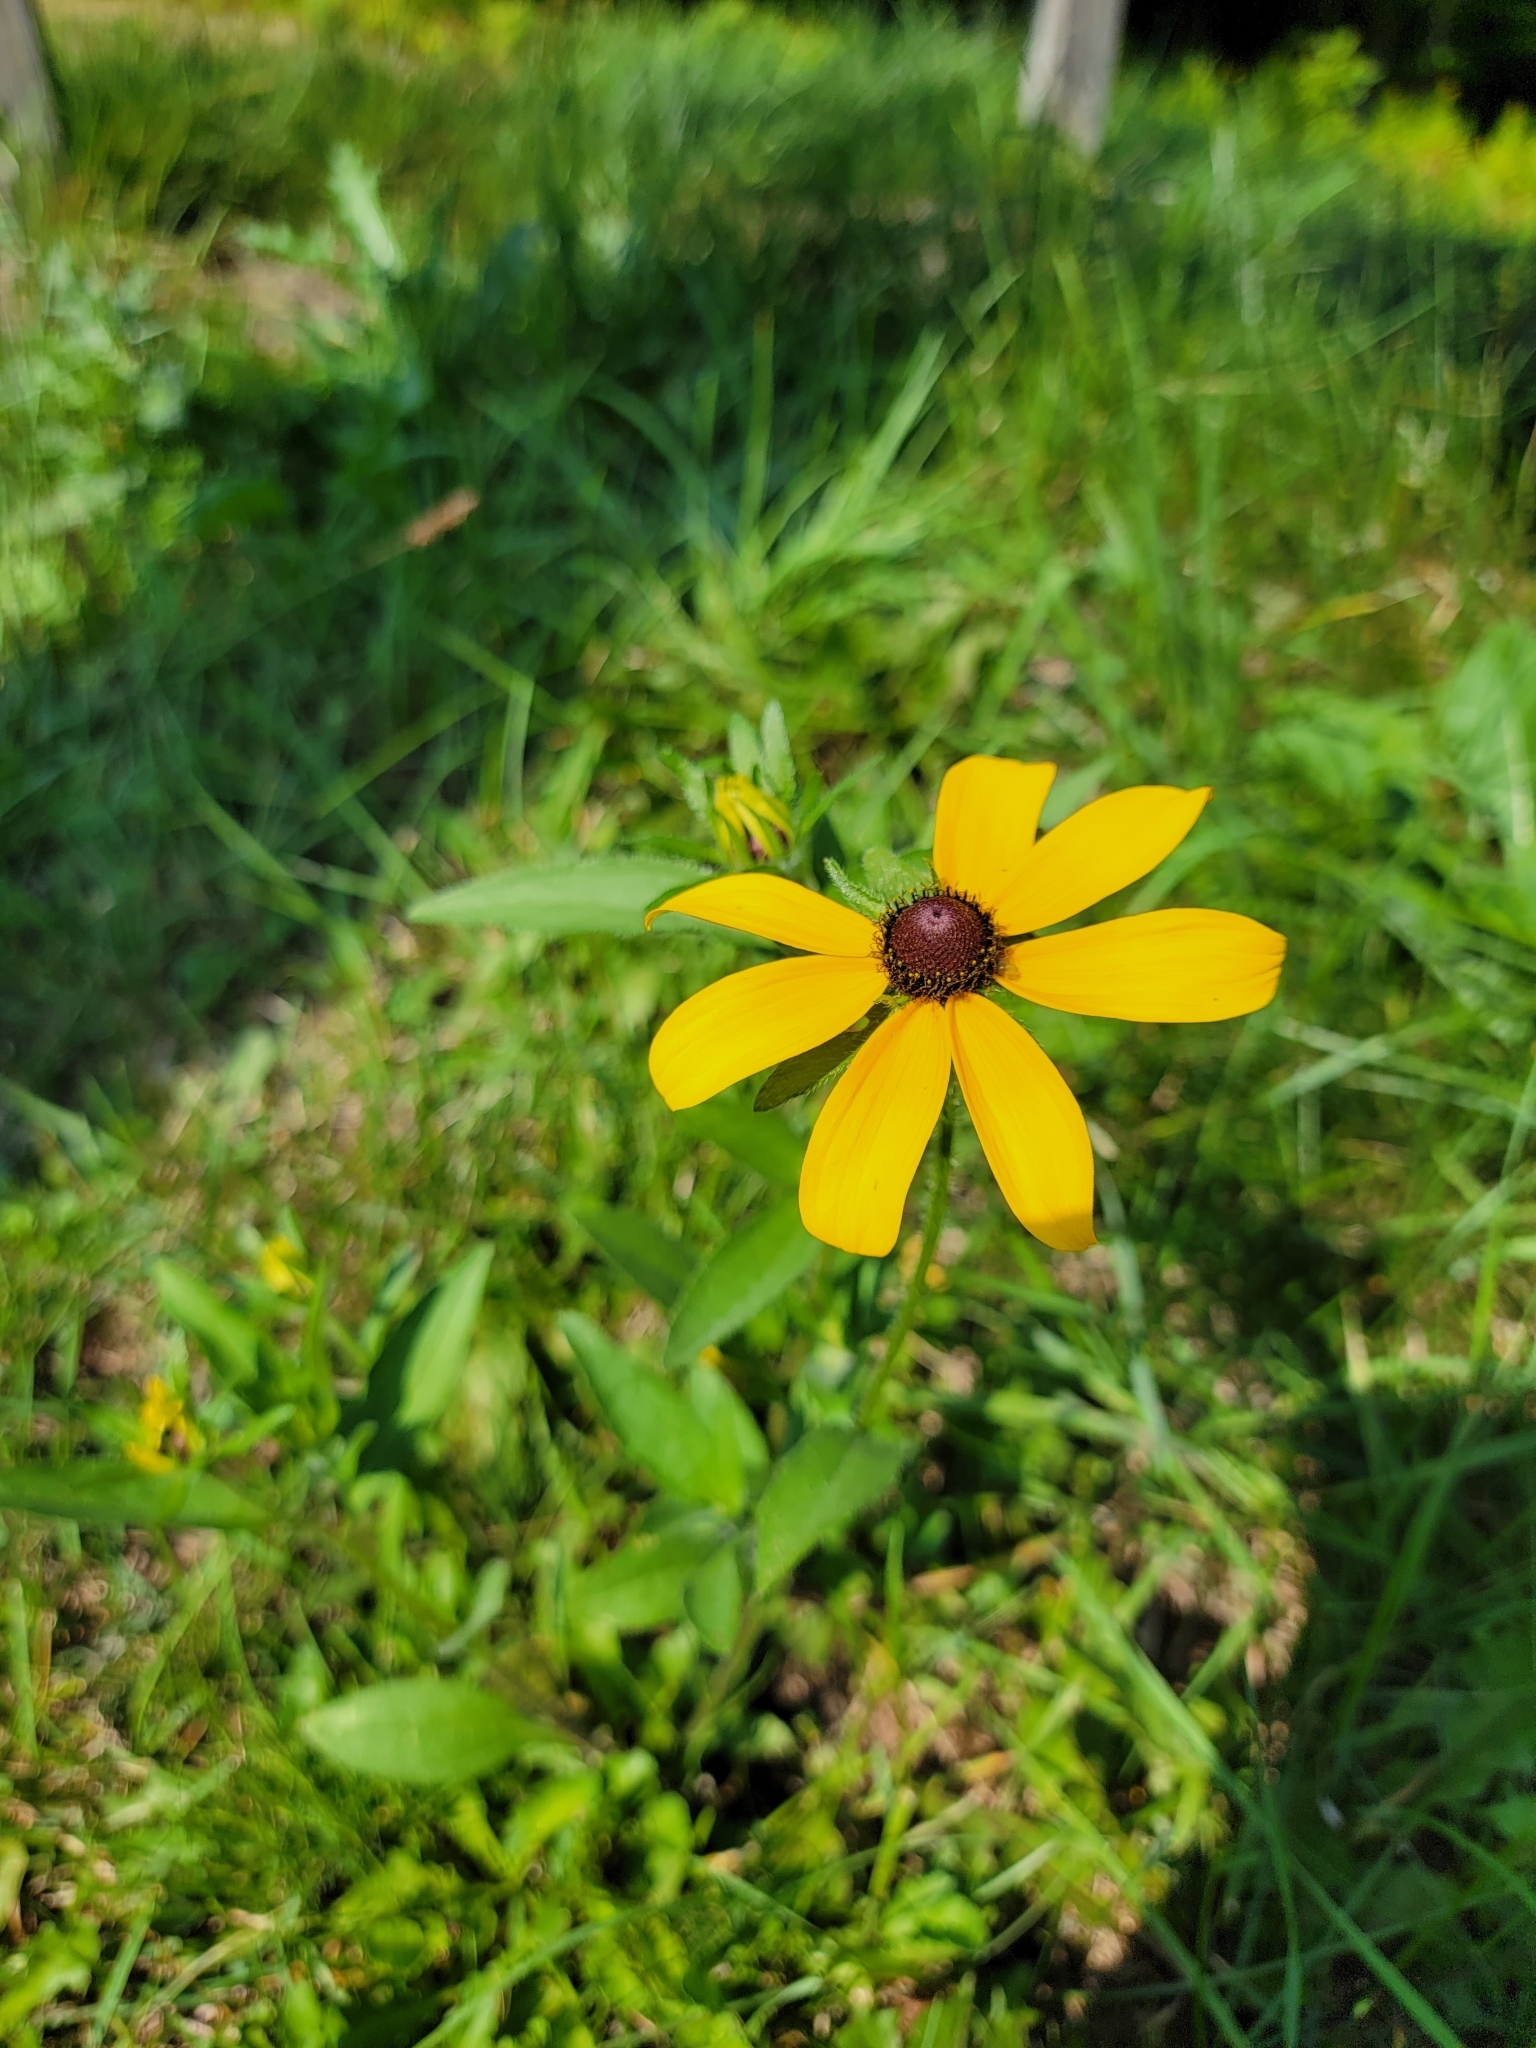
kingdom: Plantae
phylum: Tracheophyta
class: Magnoliopsida
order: Asterales
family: Asteraceae
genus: Rudbeckia
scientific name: Rudbeckia hirta
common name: Black-eyed-susan
